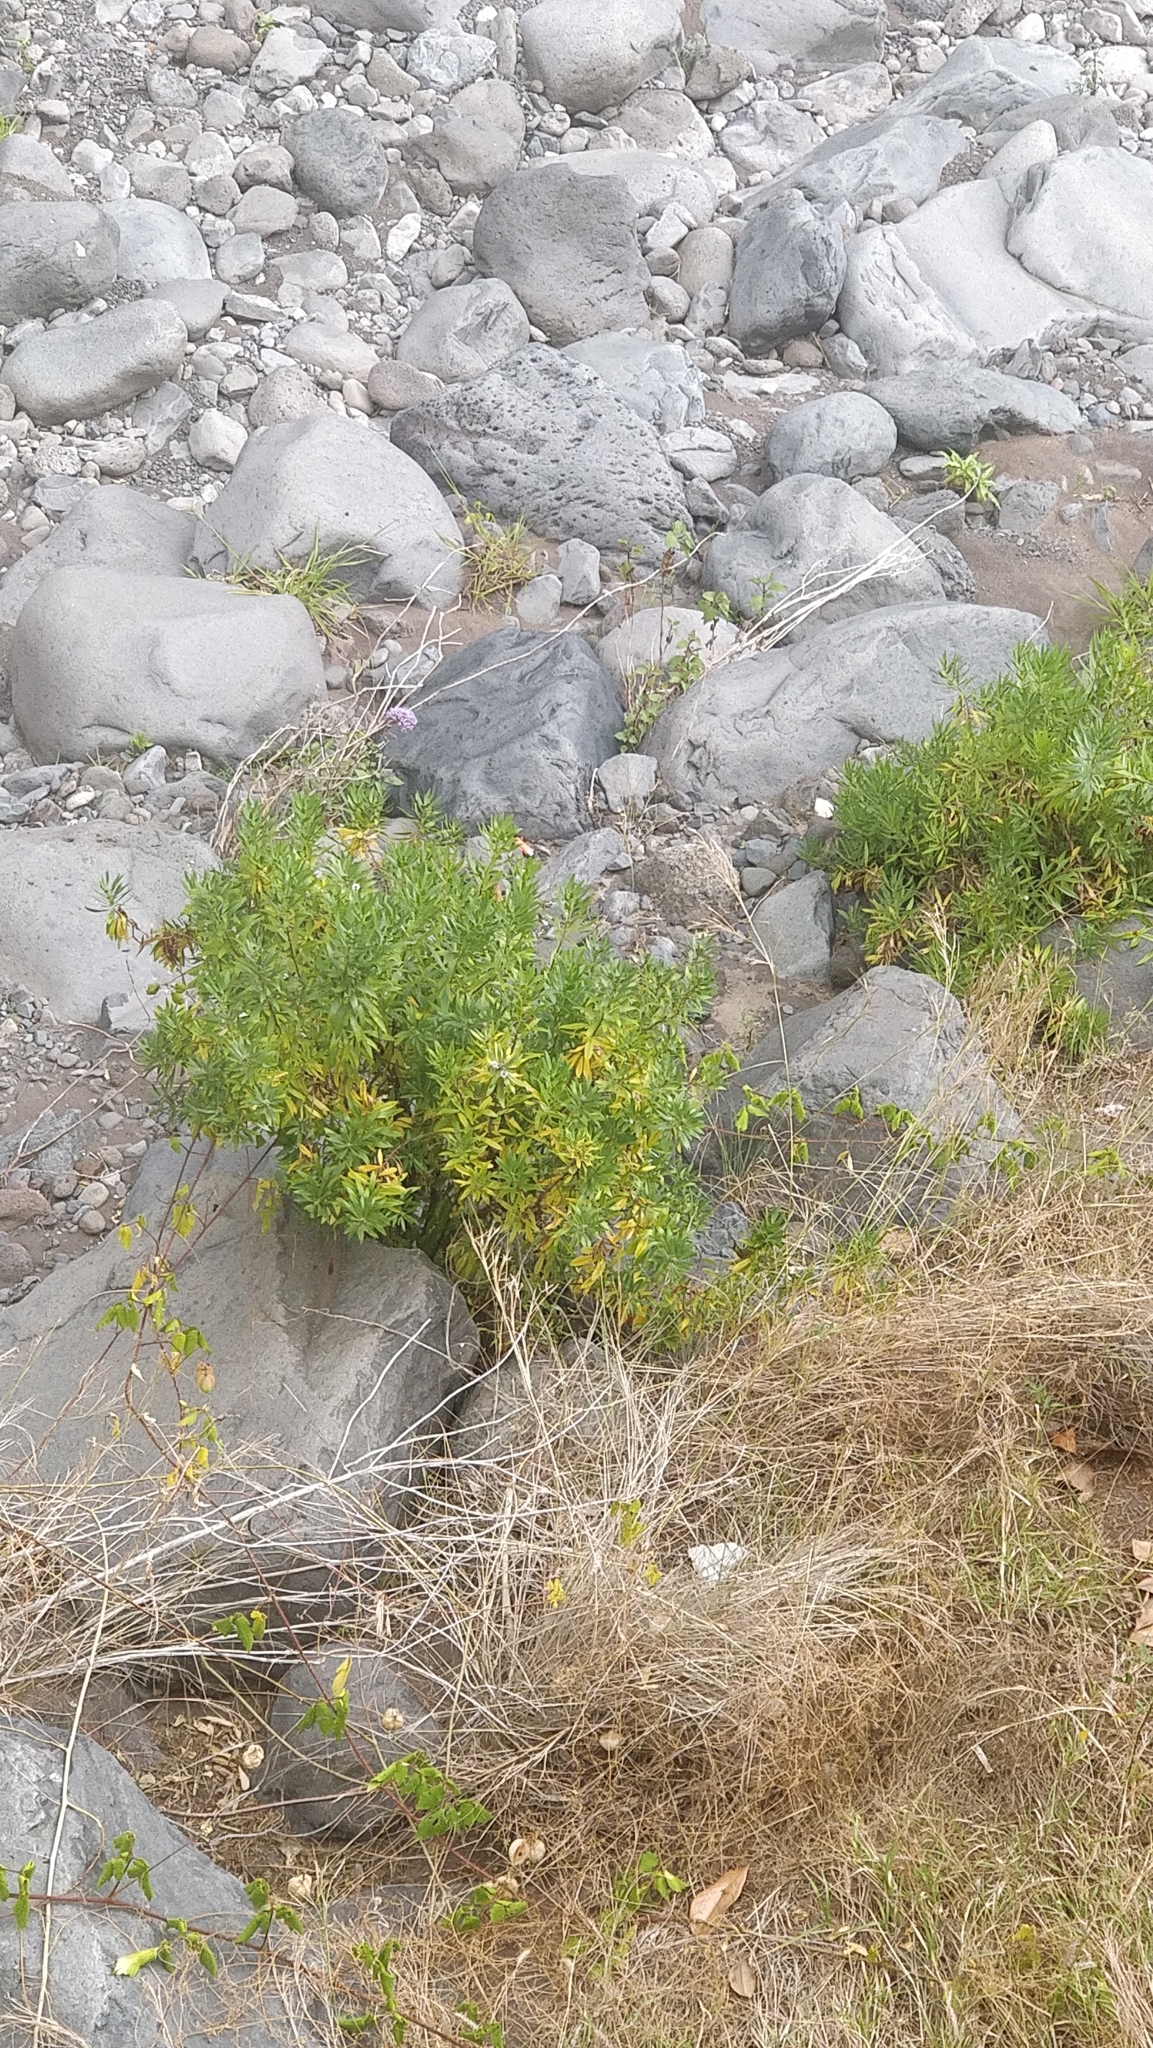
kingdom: Plantae
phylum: Tracheophyta
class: Magnoliopsida
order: Lamiales
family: Plantaginaceae
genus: Globularia
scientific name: Globularia salicina
